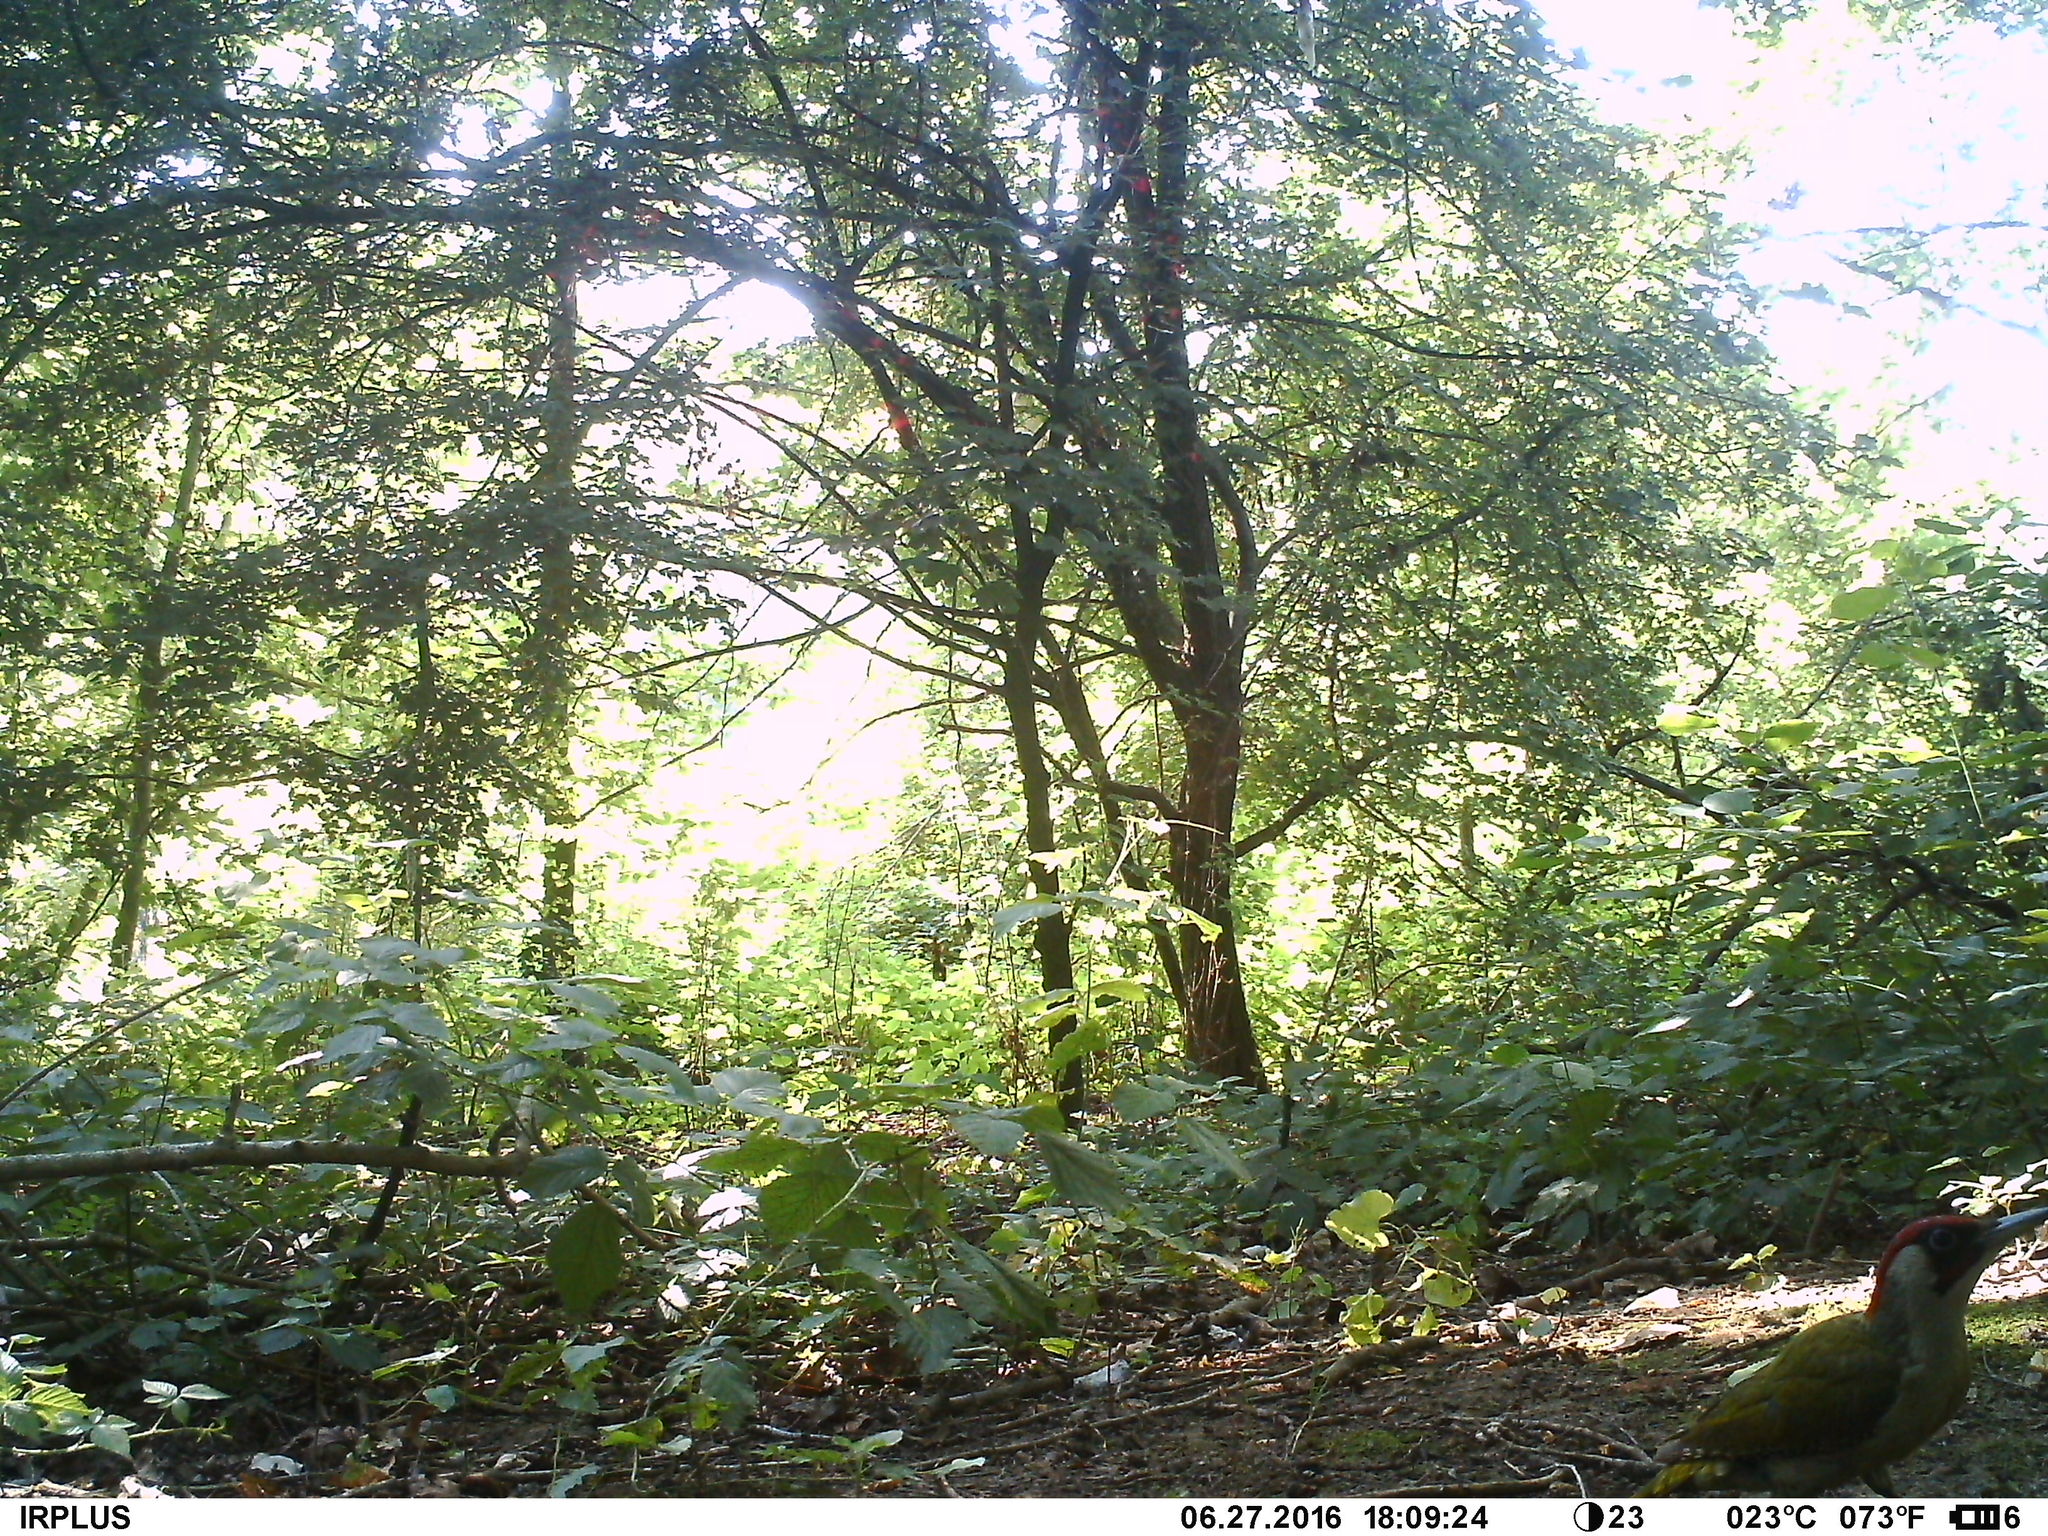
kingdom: Animalia
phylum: Chordata
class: Aves
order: Piciformes
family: Picidae
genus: Picus
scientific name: Picus viridis
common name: European green woodpecker
